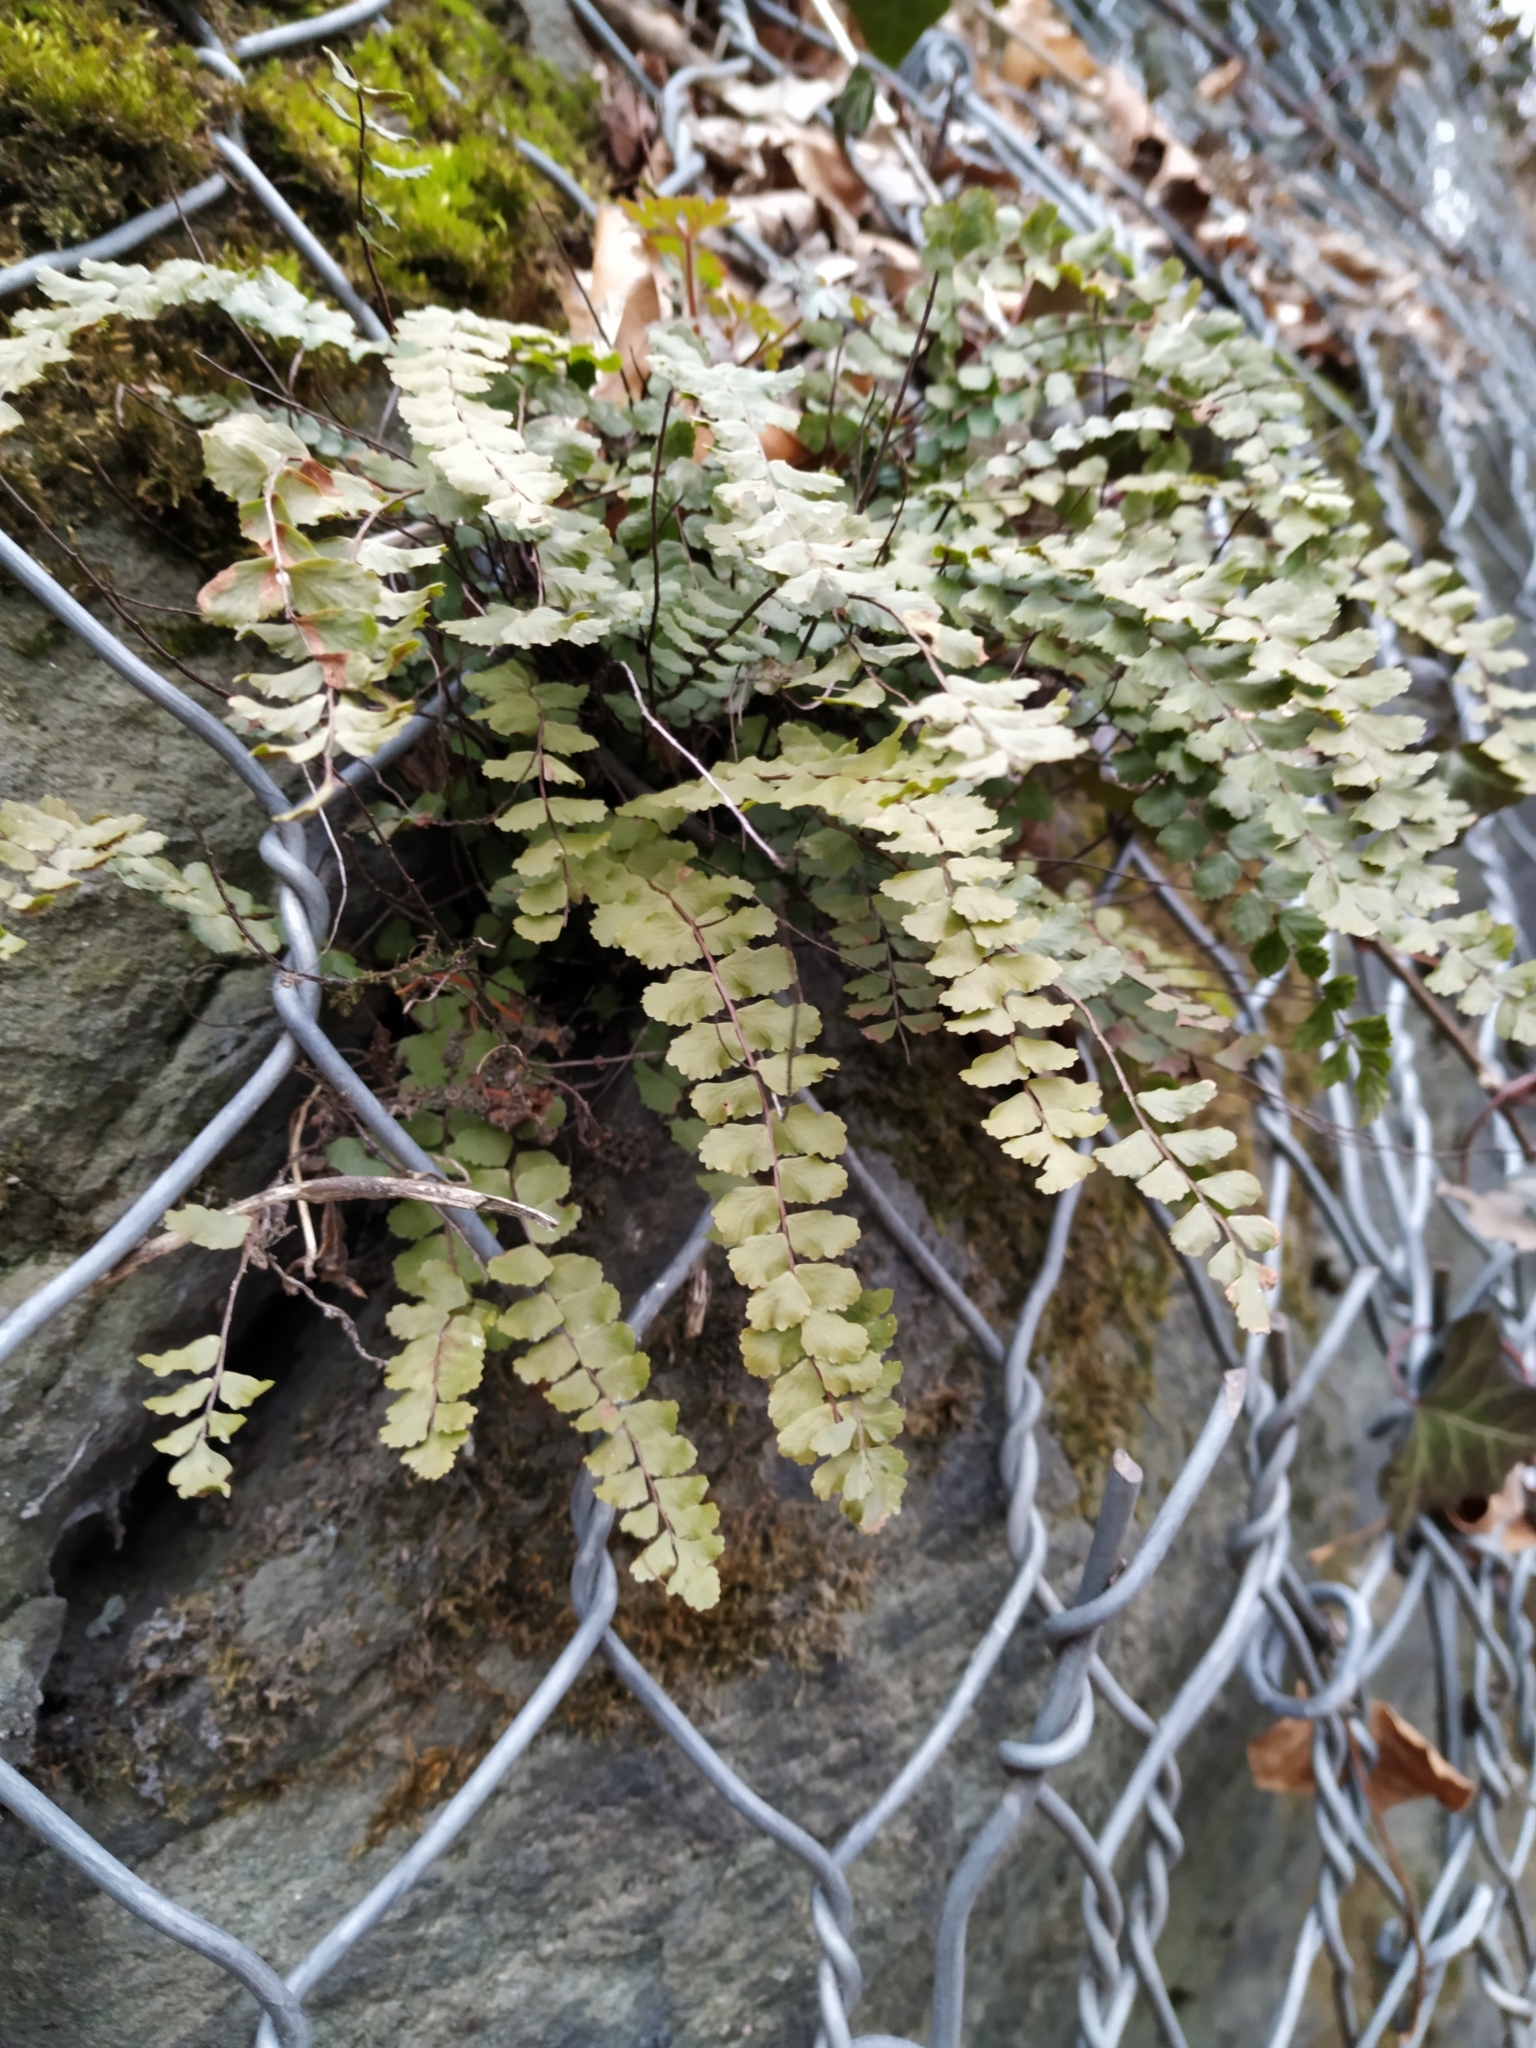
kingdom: Plantae
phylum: Tracheophyta
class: Polypodiopsida
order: Polypodiales
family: Aspleniaceae
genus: Asplenium
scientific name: Asplenium trichomanes
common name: Maidenhair spleenwort
